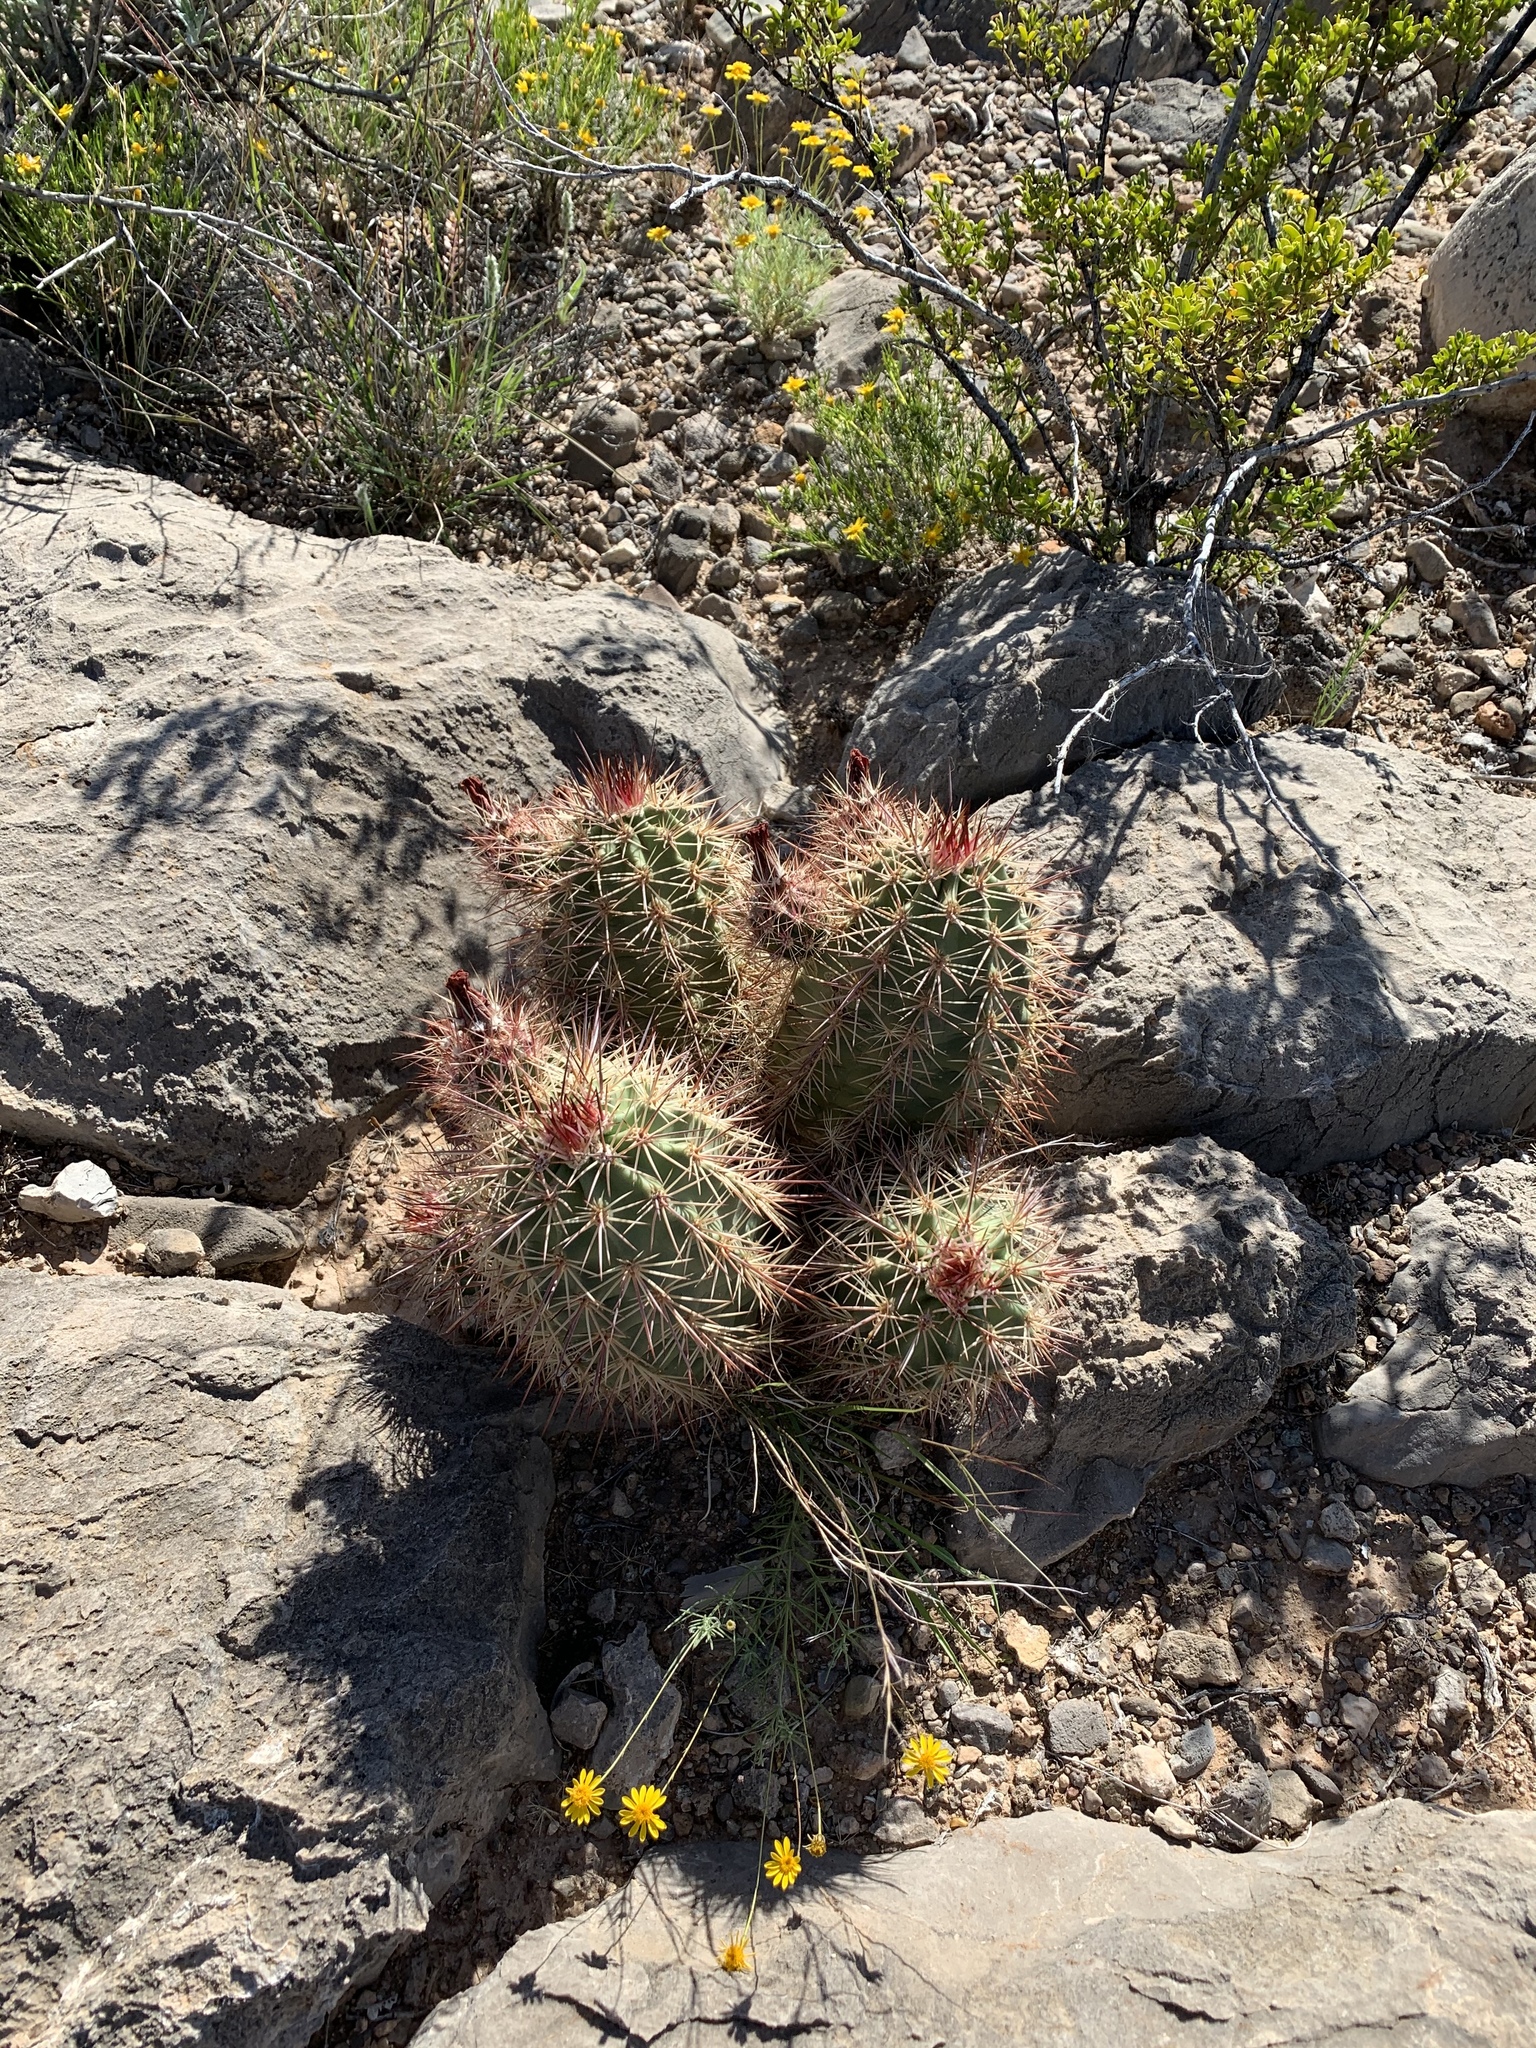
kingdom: Plantae
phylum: Tracheophyta
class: Magnoliopsida
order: Caryophyllales
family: Cactaceae
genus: Echinocereus
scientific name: Echinocereus coccineus
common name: Scarlet hedgehog cactus
